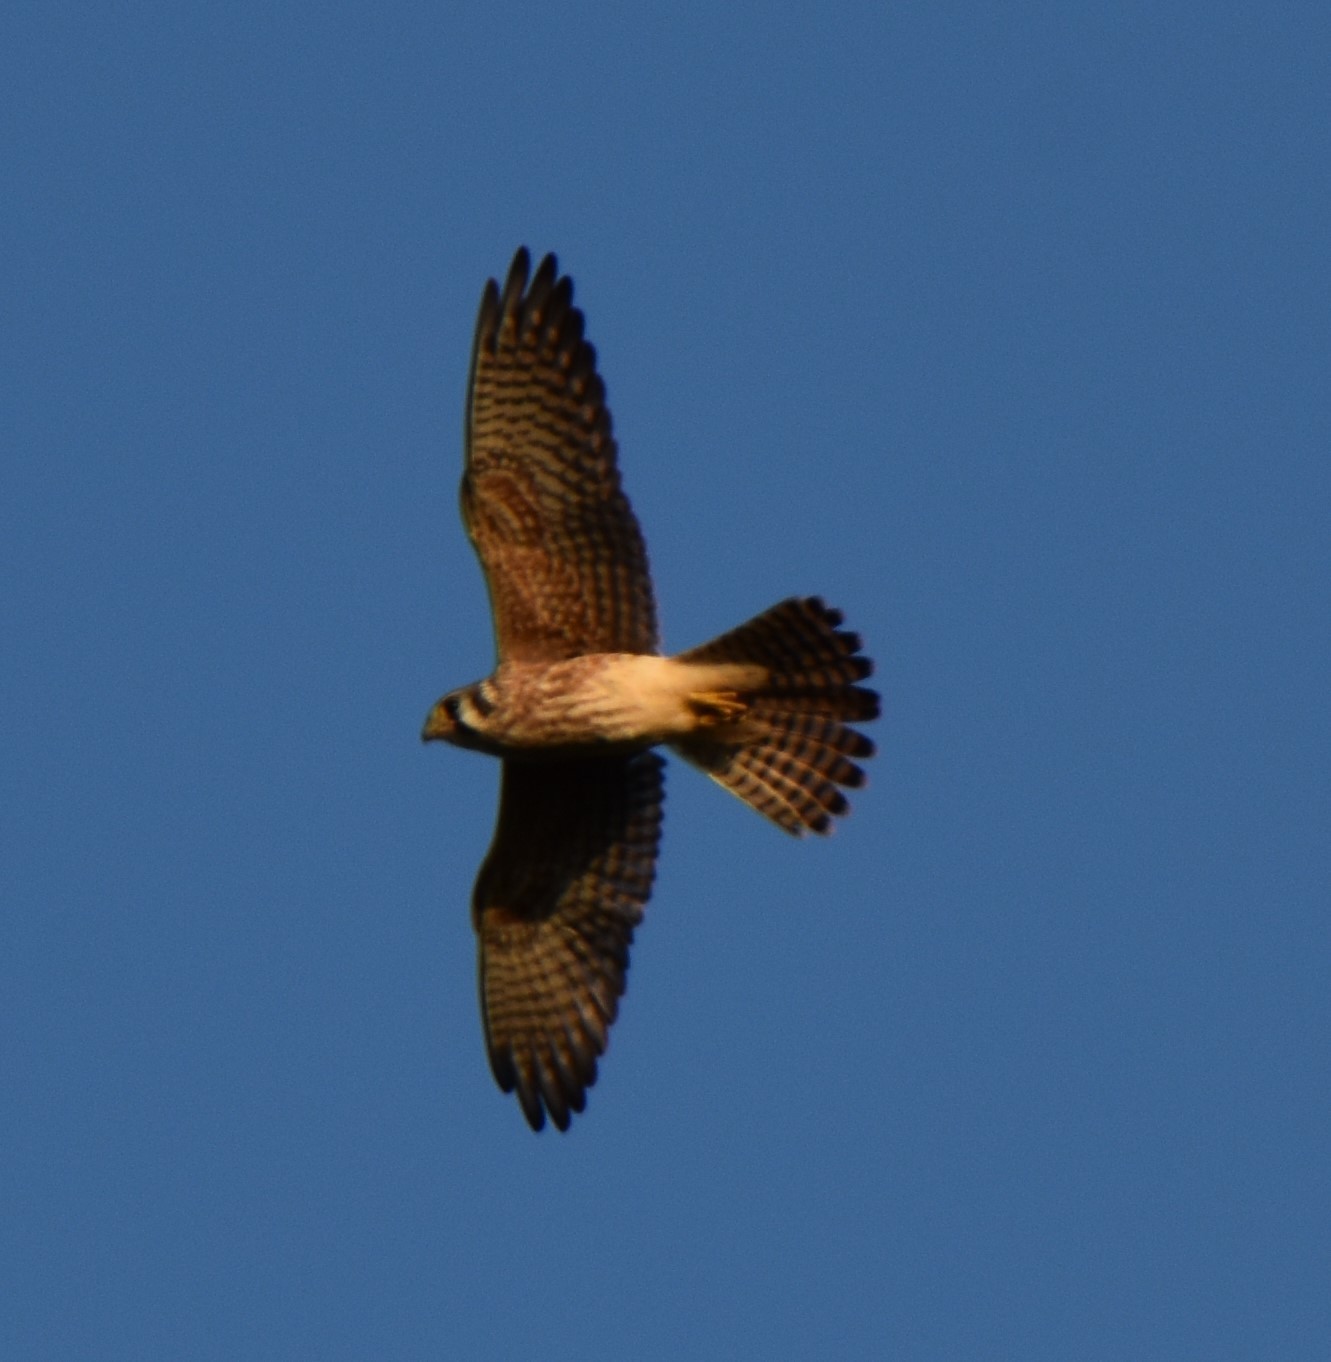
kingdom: Animalia
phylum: Chordata
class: Aves
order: Falconiformes
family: Falconidae
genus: Falco
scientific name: Falco sparverius
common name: American kestrel
